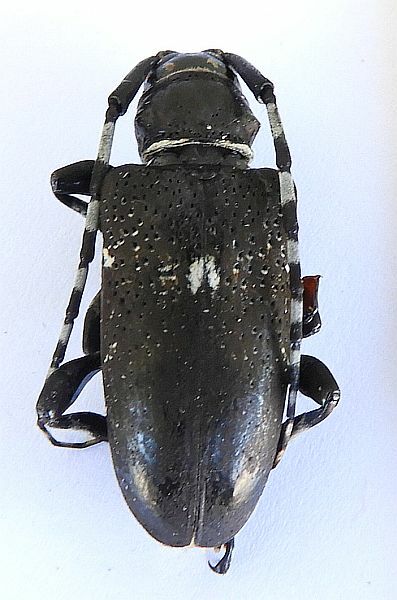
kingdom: Animalia
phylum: Arthropoda
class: Insecta
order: Coleoptera
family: Cerambycidae
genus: Coenopoeus
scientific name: Coenopoeus palmeri
